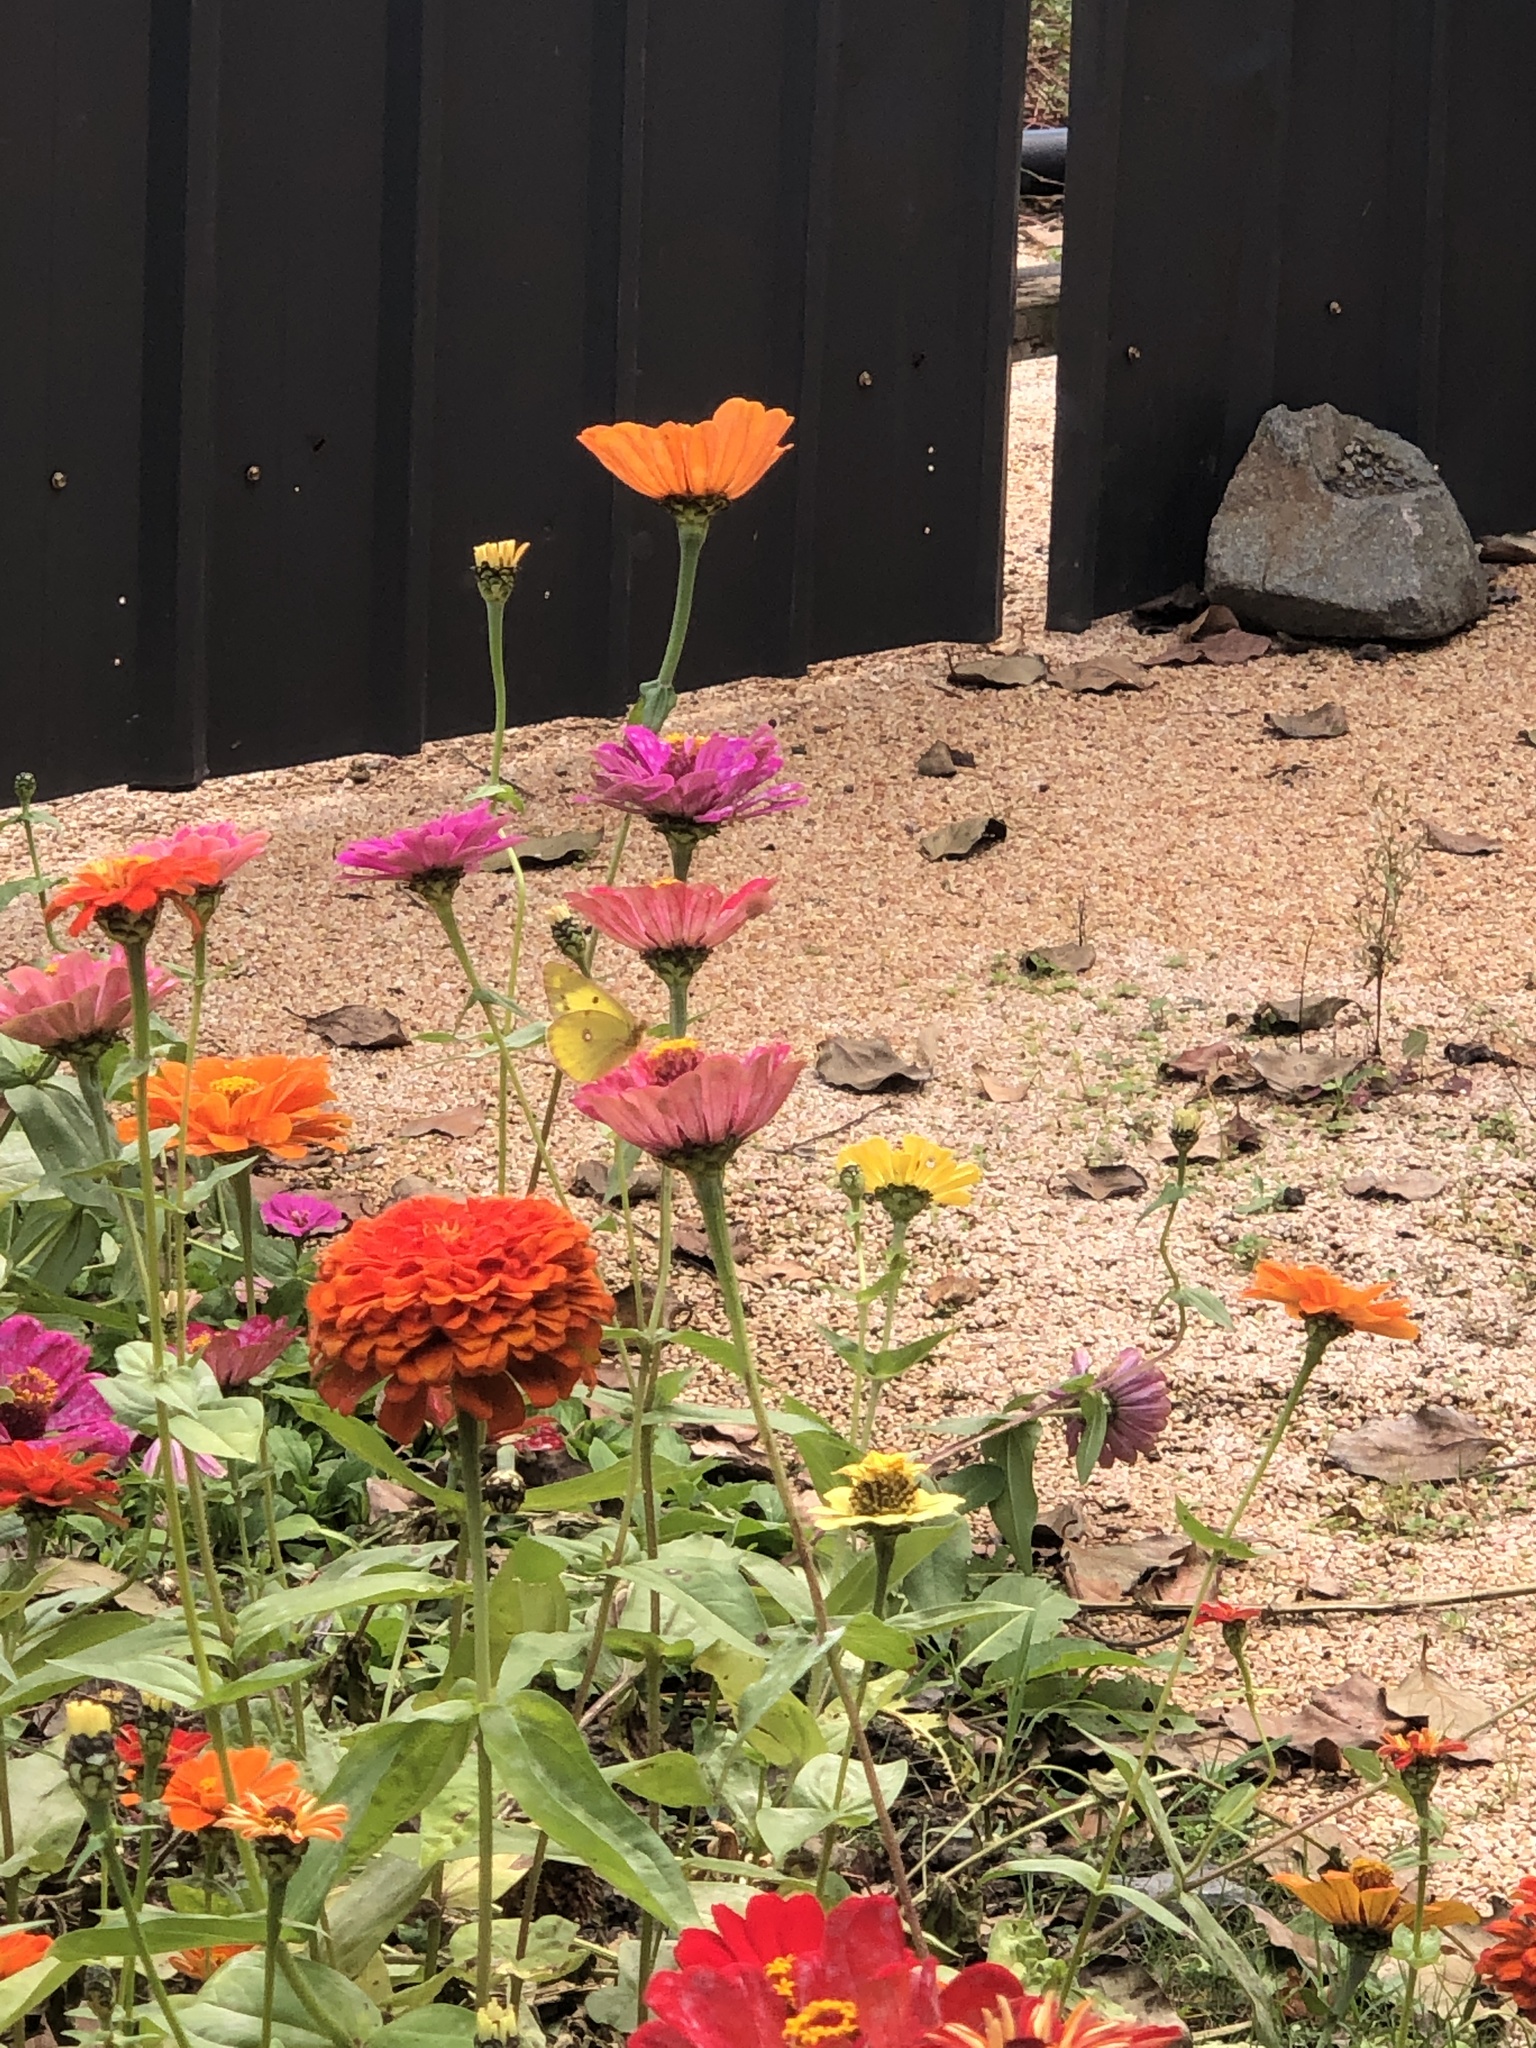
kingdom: Animalia
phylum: Arthropoda
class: Insecta
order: Lepidoptera
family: Pieridae
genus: Colias
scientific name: Colias poliographus
